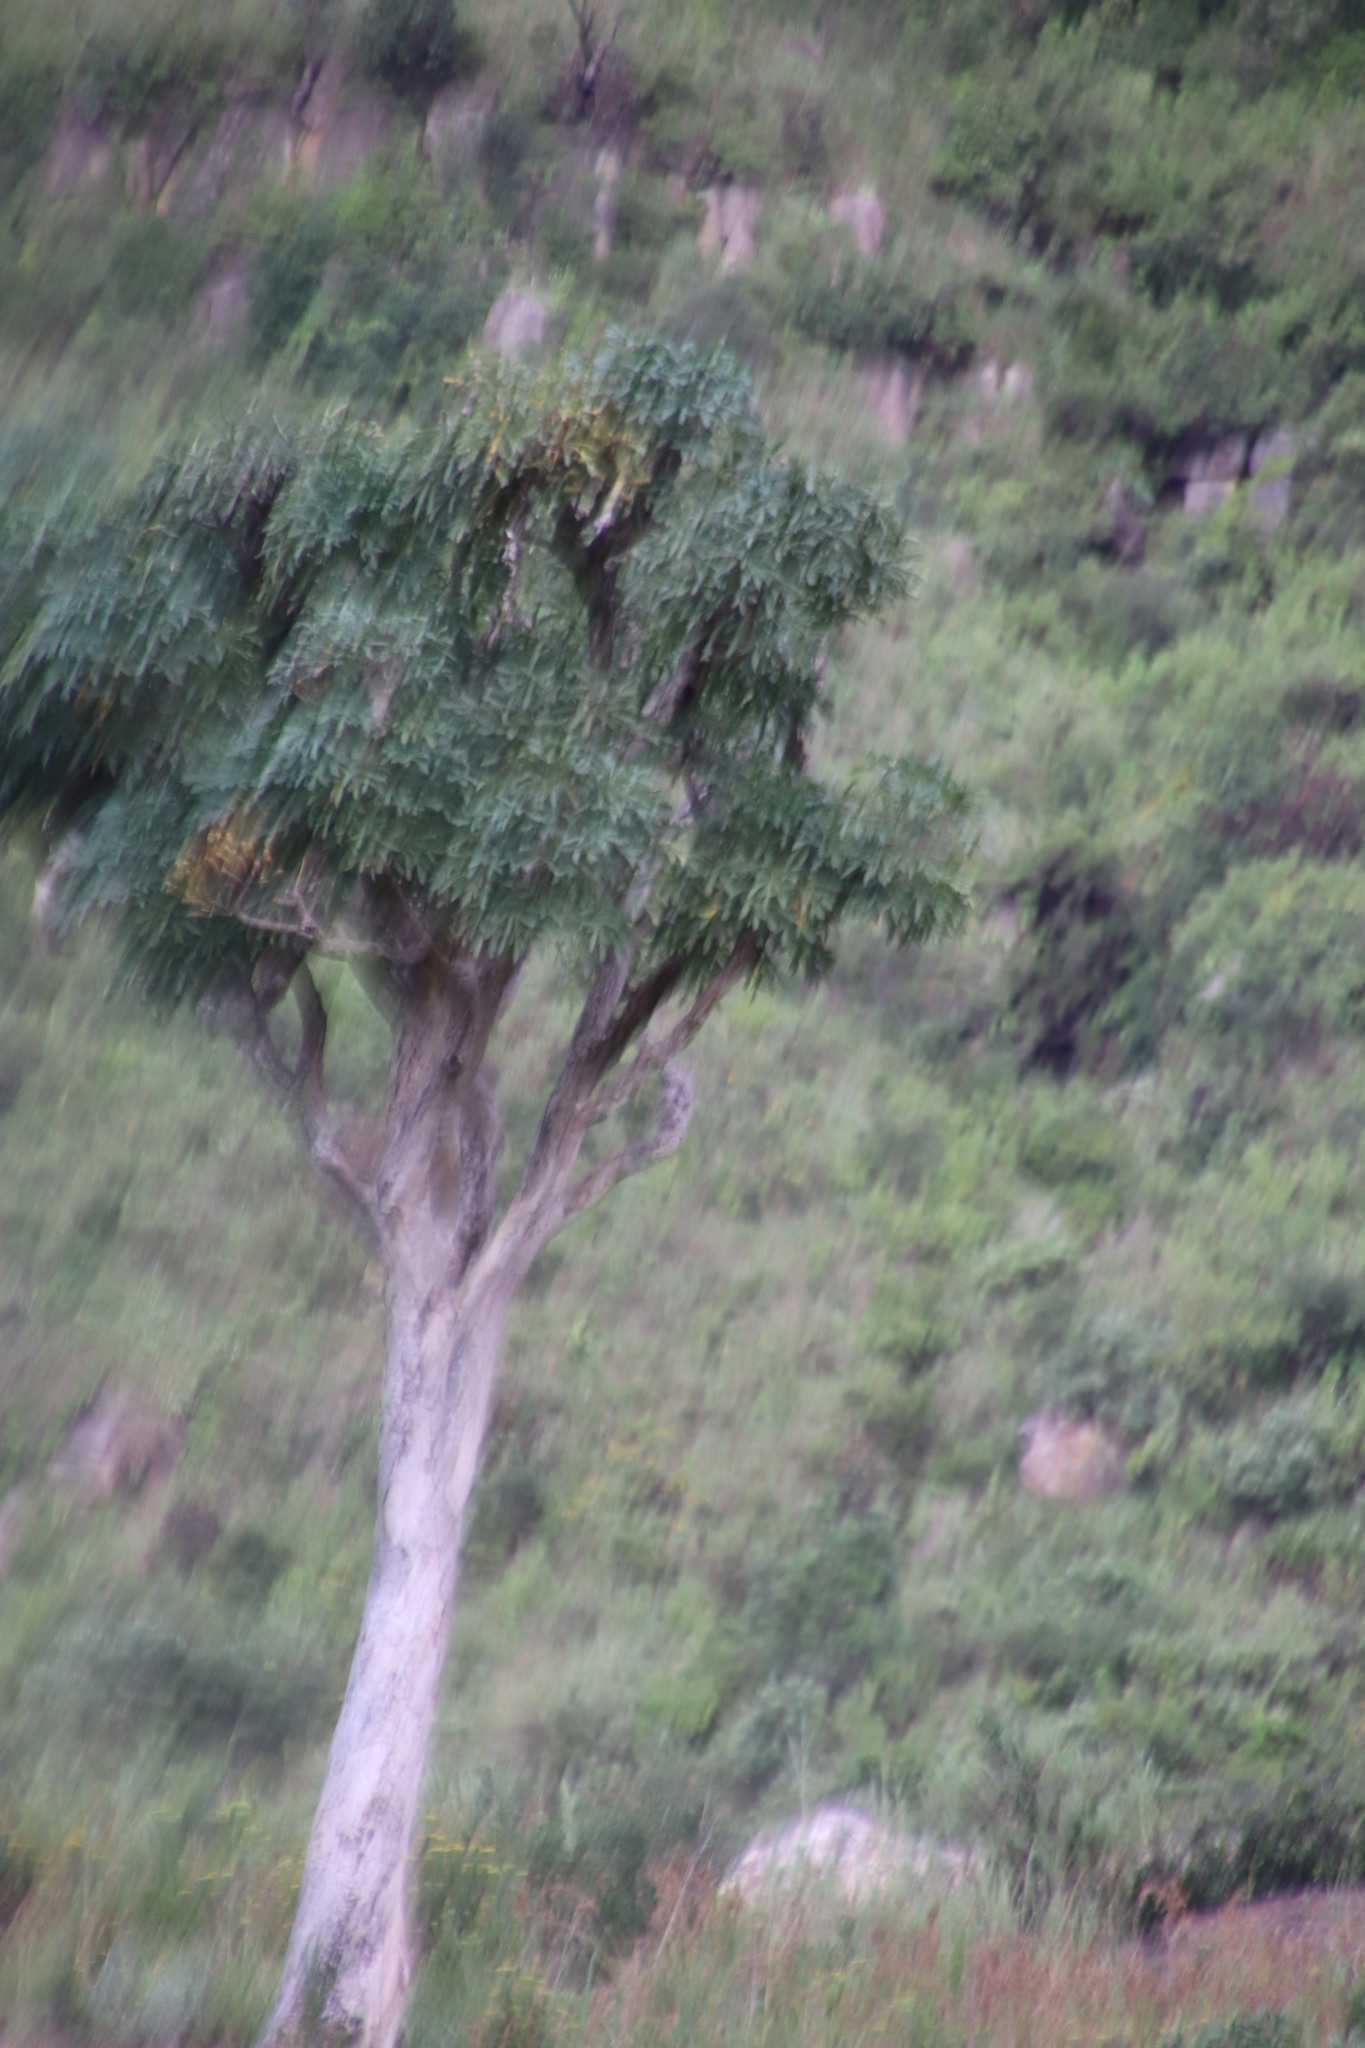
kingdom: Plantae
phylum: Tracheophyta
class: Magnoliopsida
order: Apiales
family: Araliaceae
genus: Cussonia
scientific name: Cussonia spicata
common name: Common cabbagetree
